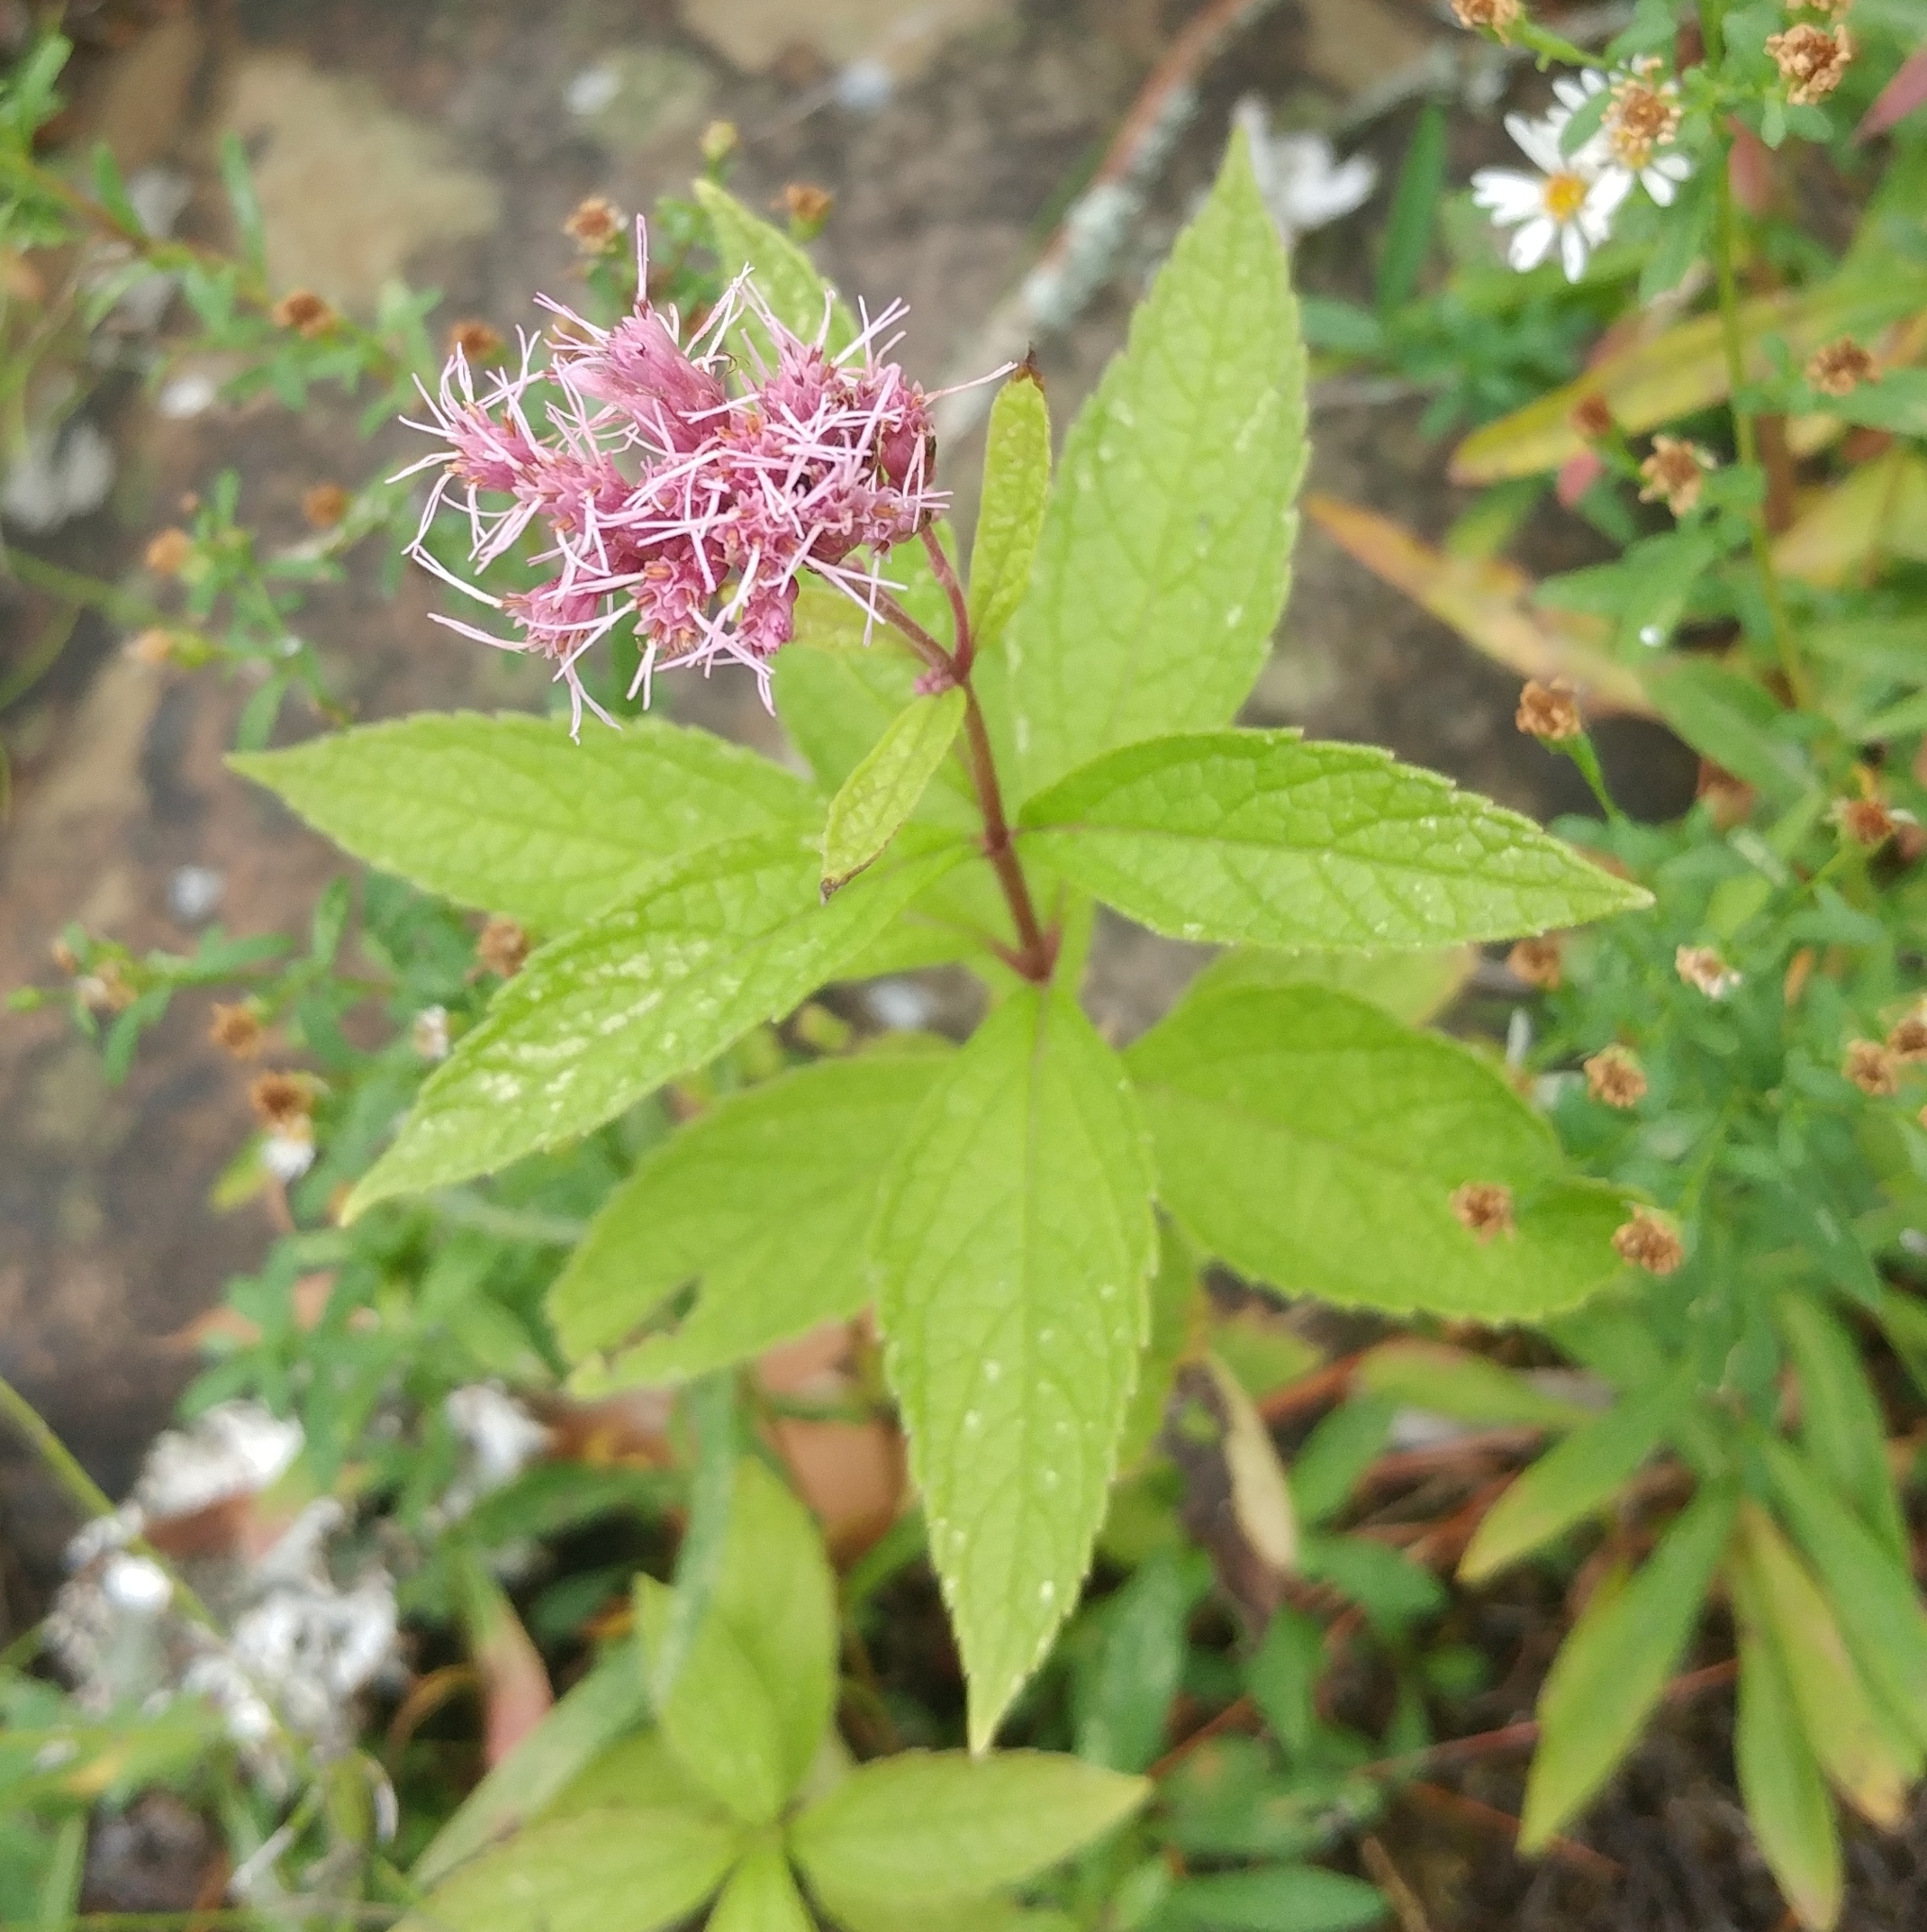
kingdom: Plantae
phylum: Tracheophyta
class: Magnoliopsida
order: Asterales
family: Asteraceae
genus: Eutrochium
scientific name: Eutrochium maculatum
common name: Spotted joe pye weed
